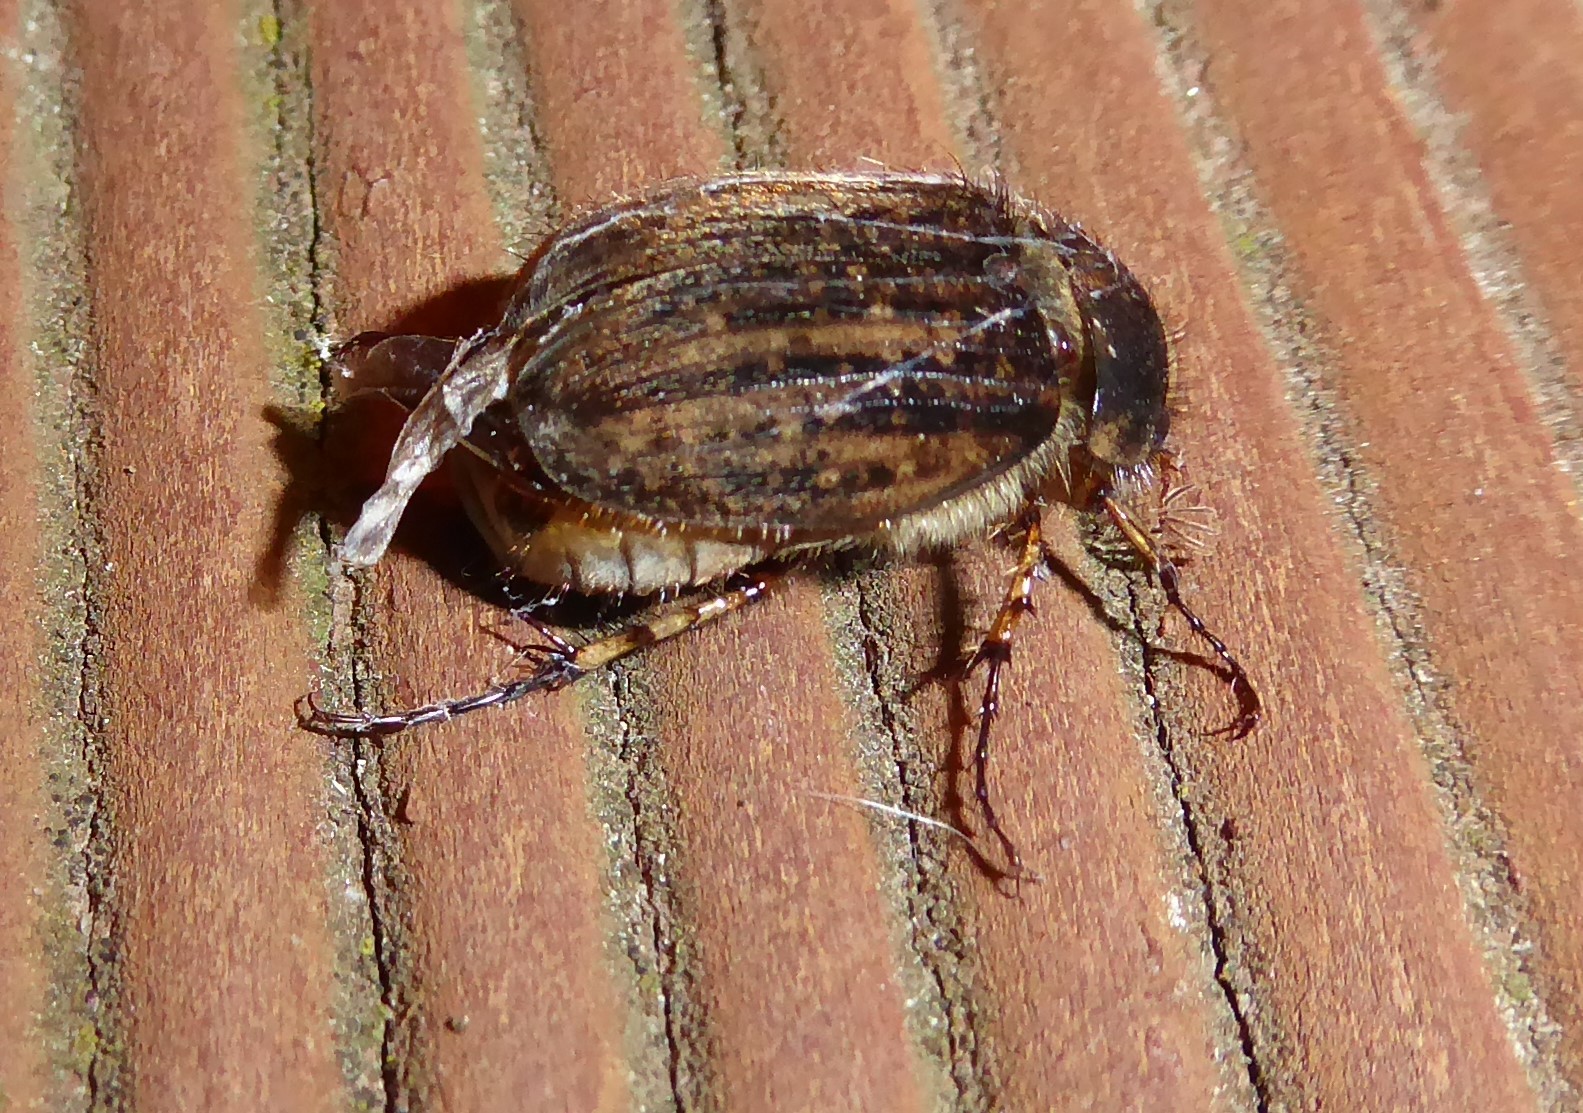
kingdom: Animalia
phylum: Arthropoda
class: Insecta
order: Coleoptera
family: Scarabaeidae
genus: Odontria
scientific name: Odontria striata
